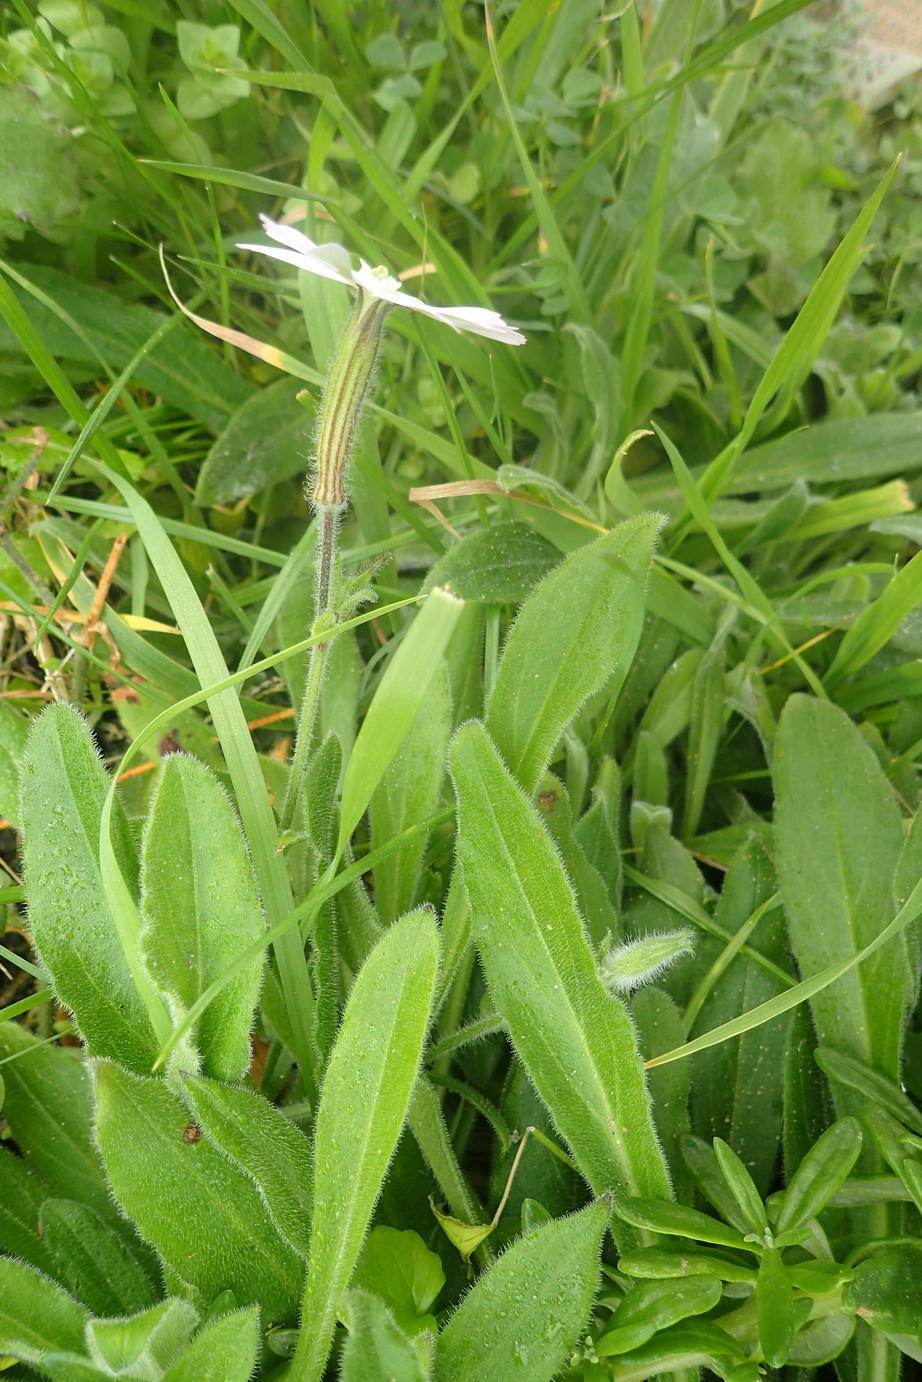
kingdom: Plantae
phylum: Tracheophyta
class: Magnoliopsida
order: Caryophyllales
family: Caryophyllaceae
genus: Silene
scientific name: Silene undulata
